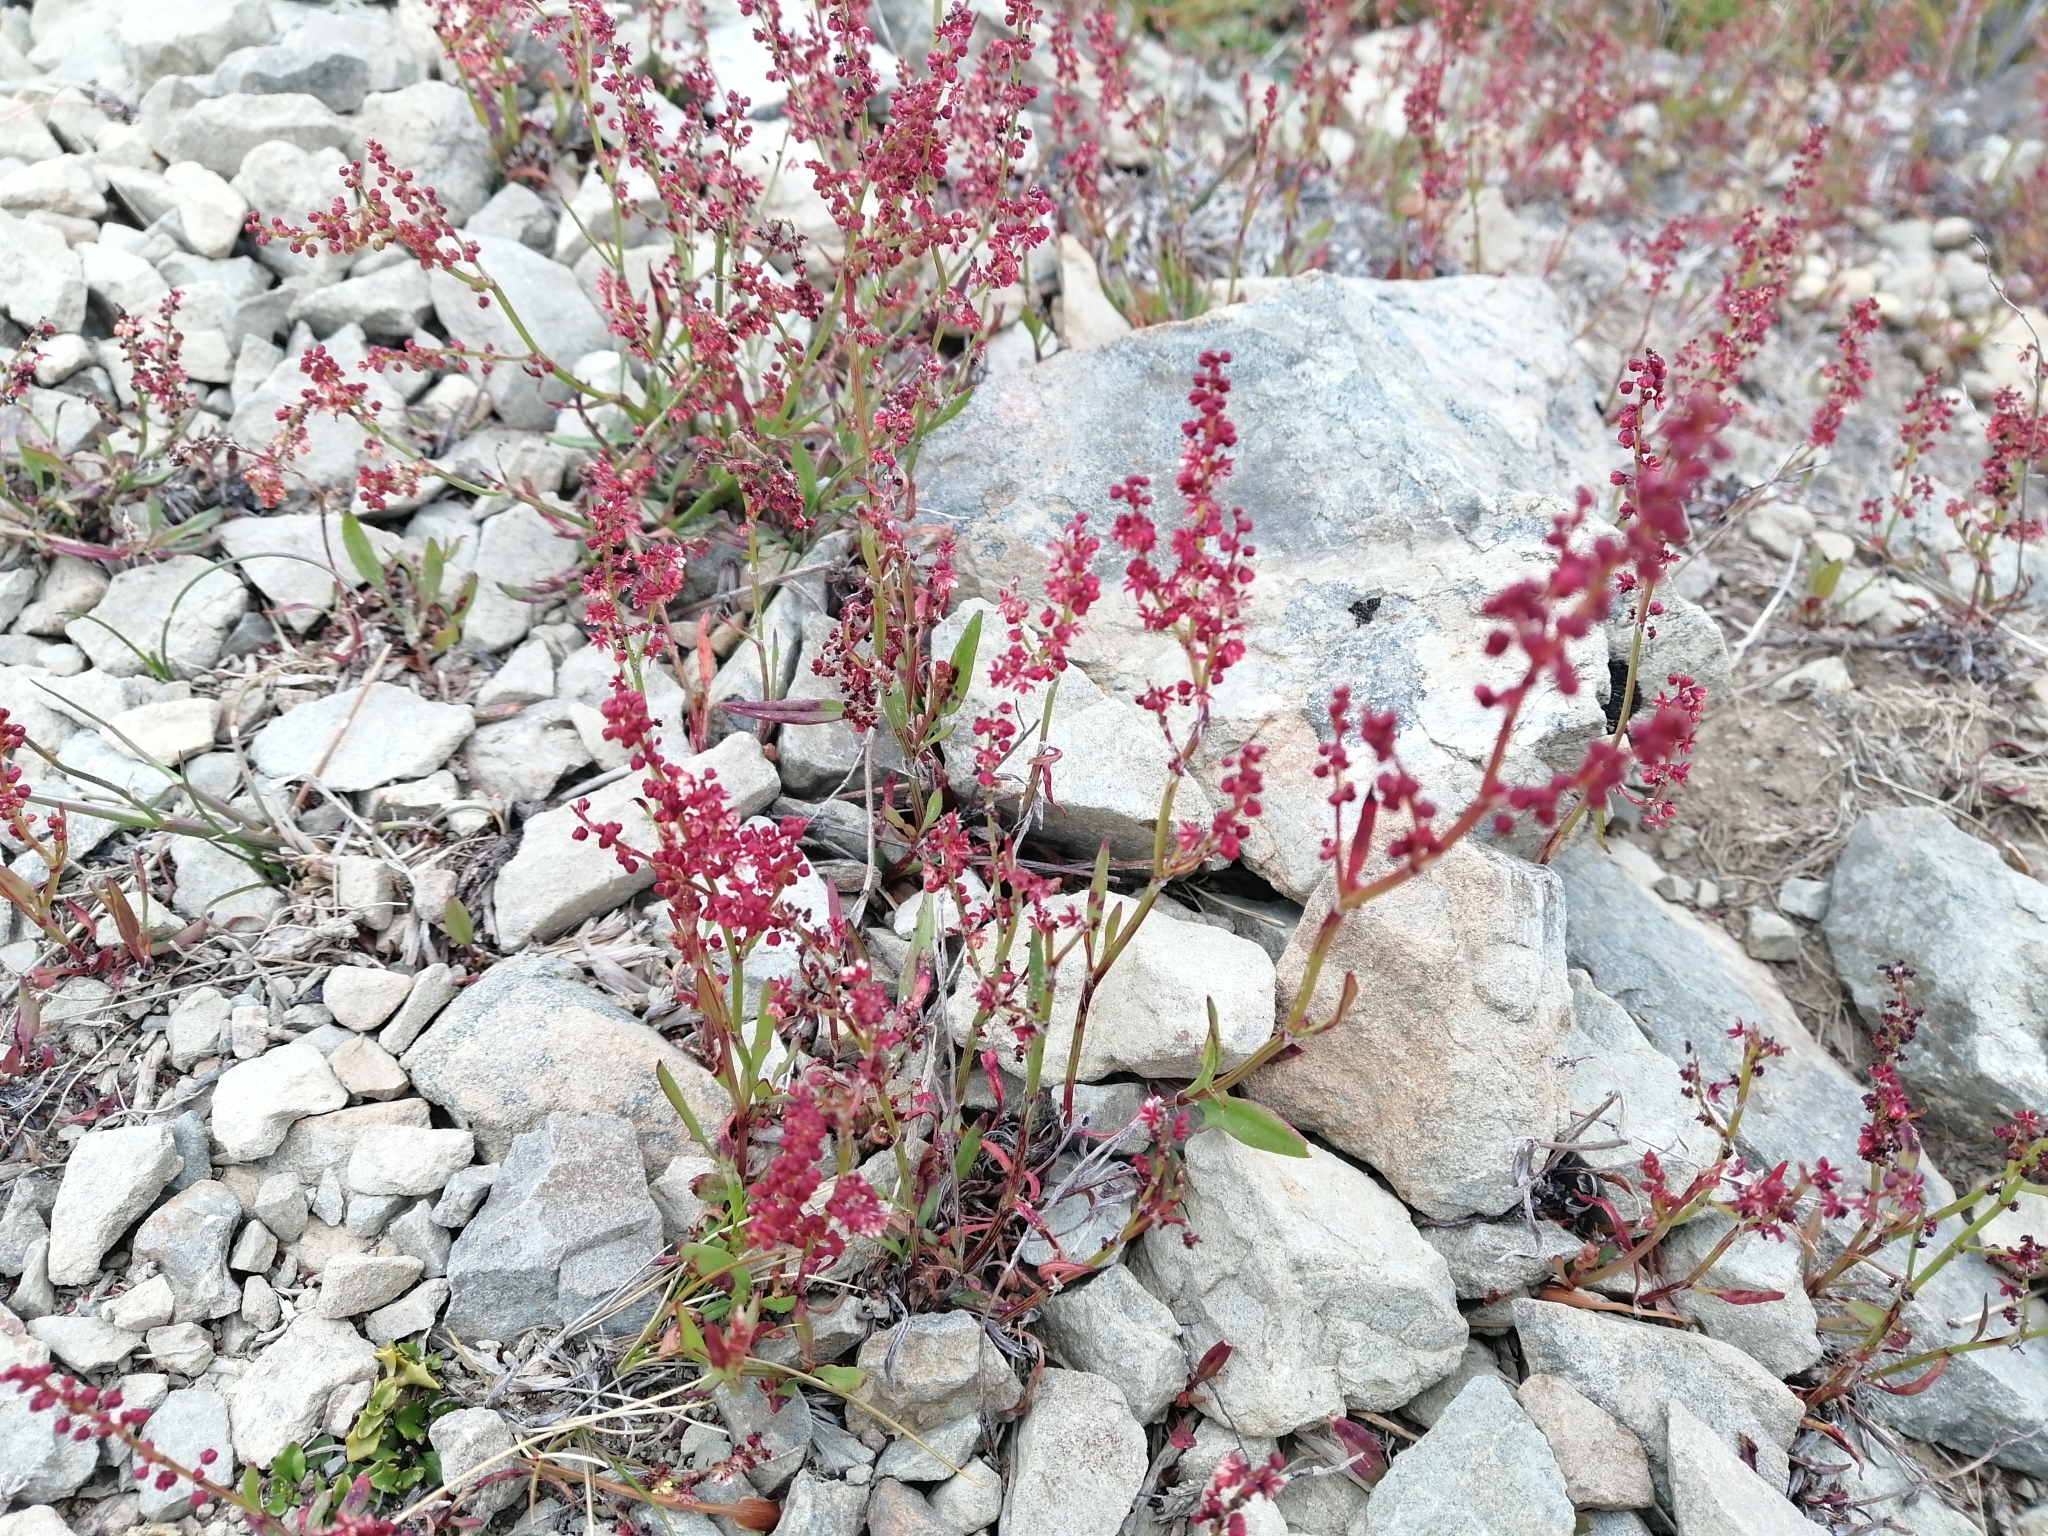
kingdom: Plantae
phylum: Tracheophyta
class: Magnoliopsida
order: Caryophyllales
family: Polygonaceae
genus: Rumex
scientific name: Rumex acetosella
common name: Common sheep sorrel
